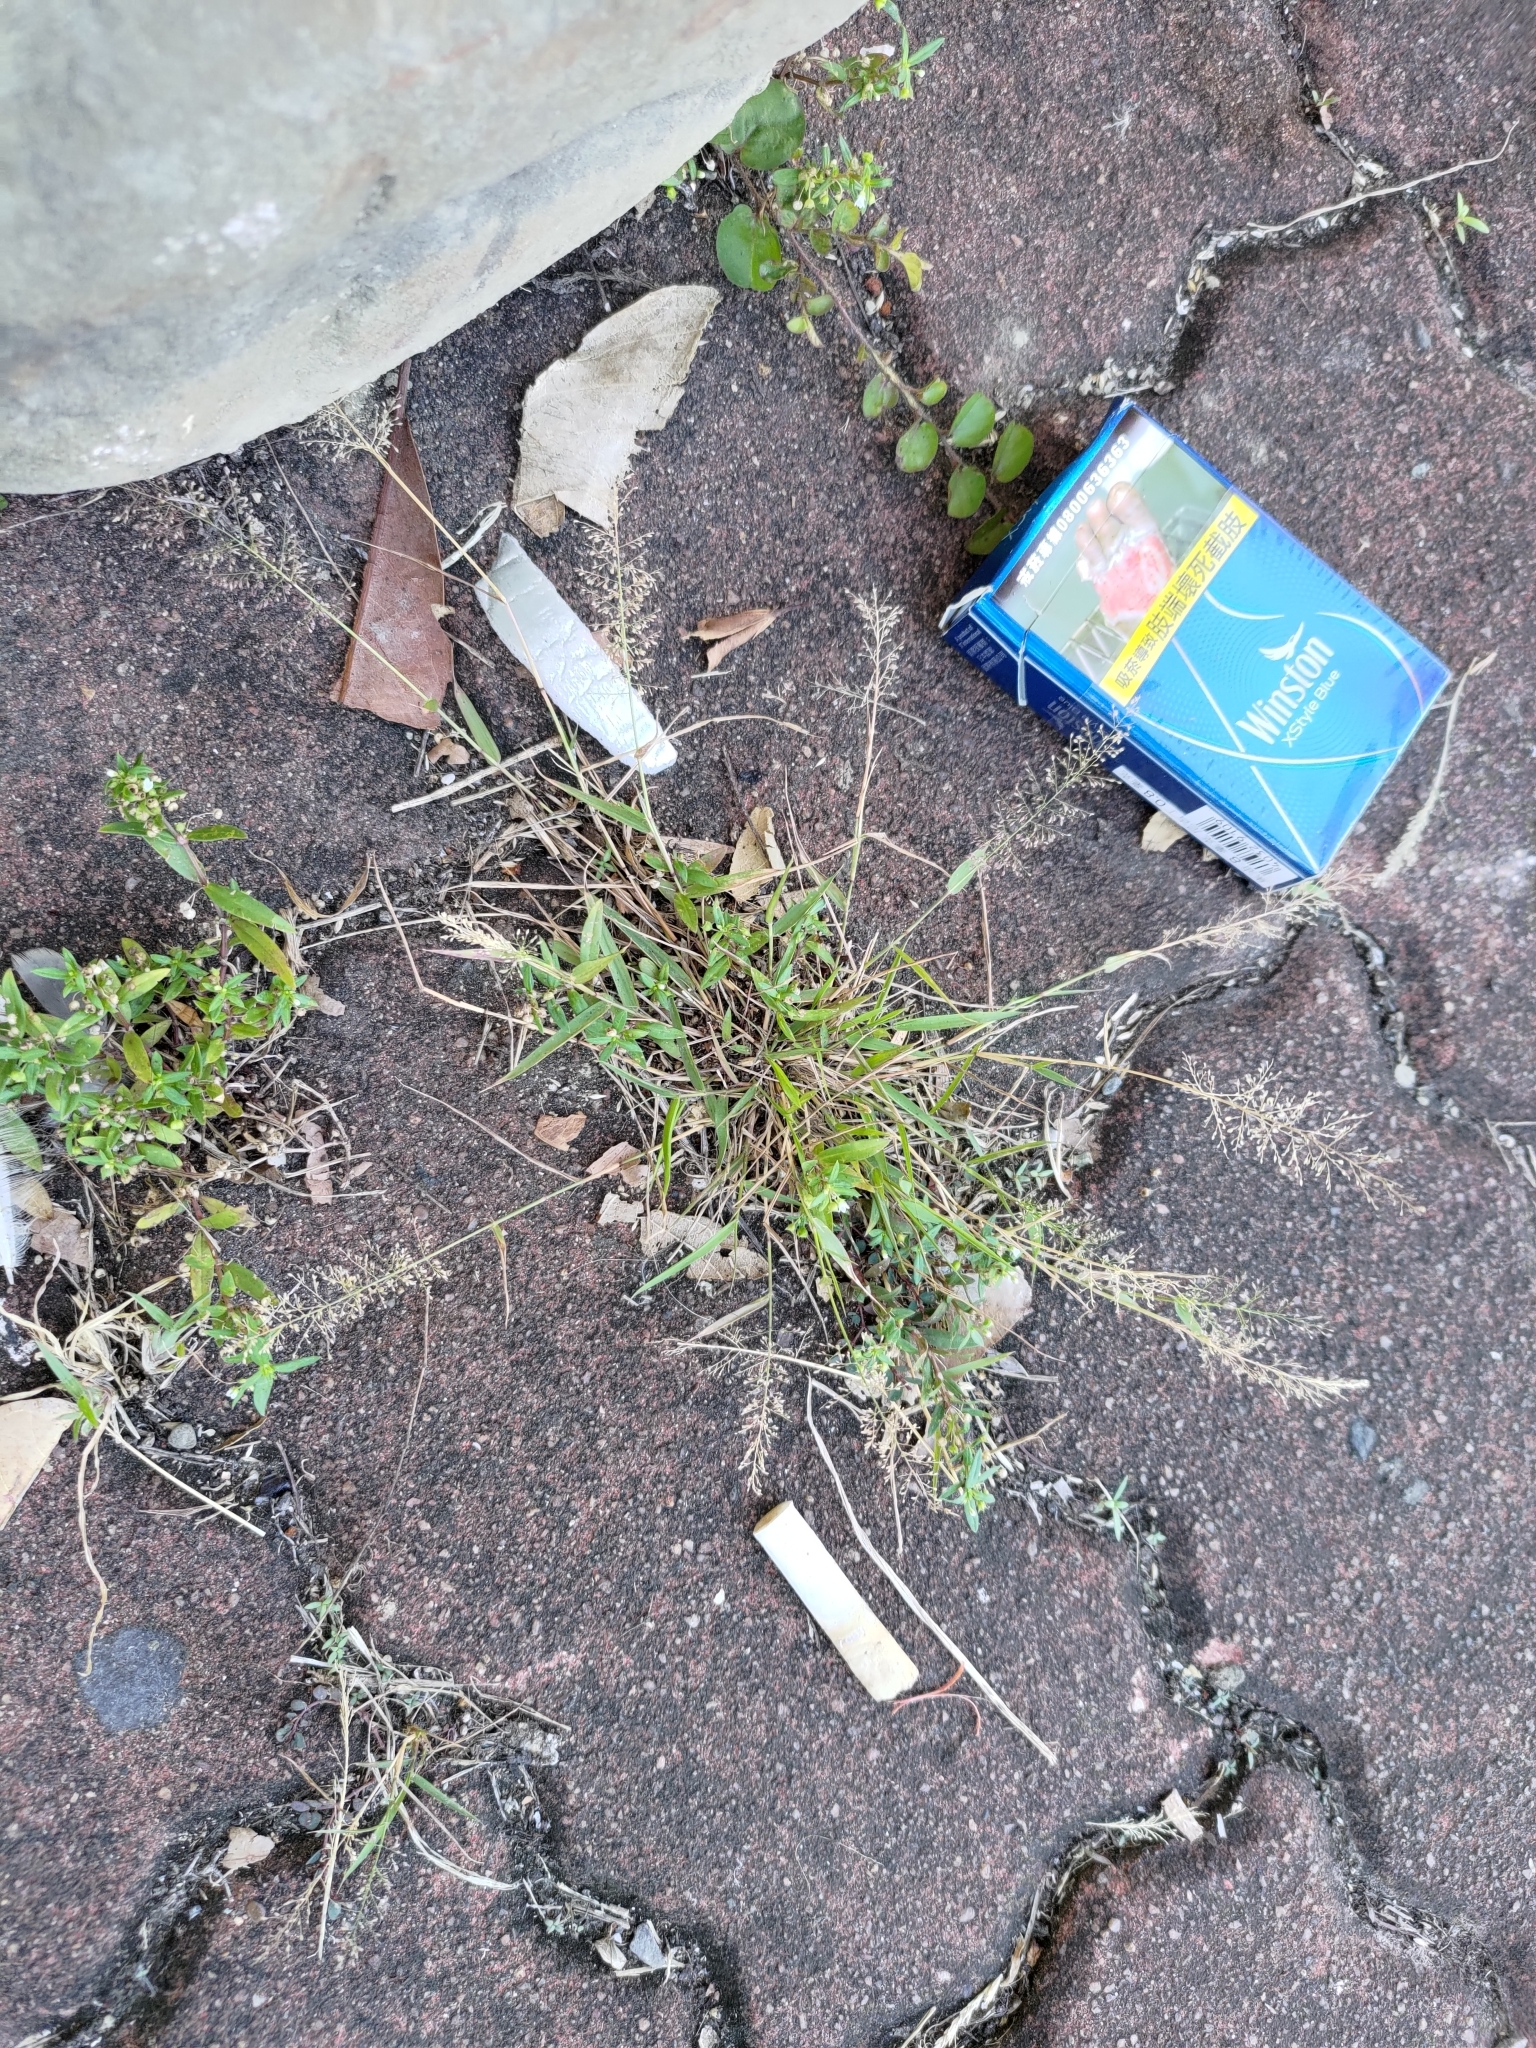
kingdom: Plantae
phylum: Tracheophyta
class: Liliopsida
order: Poales
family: Poaceae
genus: Eragrostis
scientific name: Eragrostis tenella
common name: Japanese lovegrass
